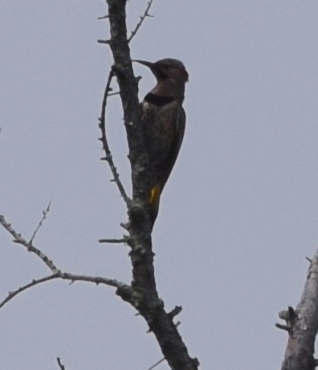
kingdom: Animalia
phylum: Chordata
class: Aves
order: Piciformes
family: Picidae
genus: Colaptes
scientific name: Colaptes auratus
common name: Northern flicker
